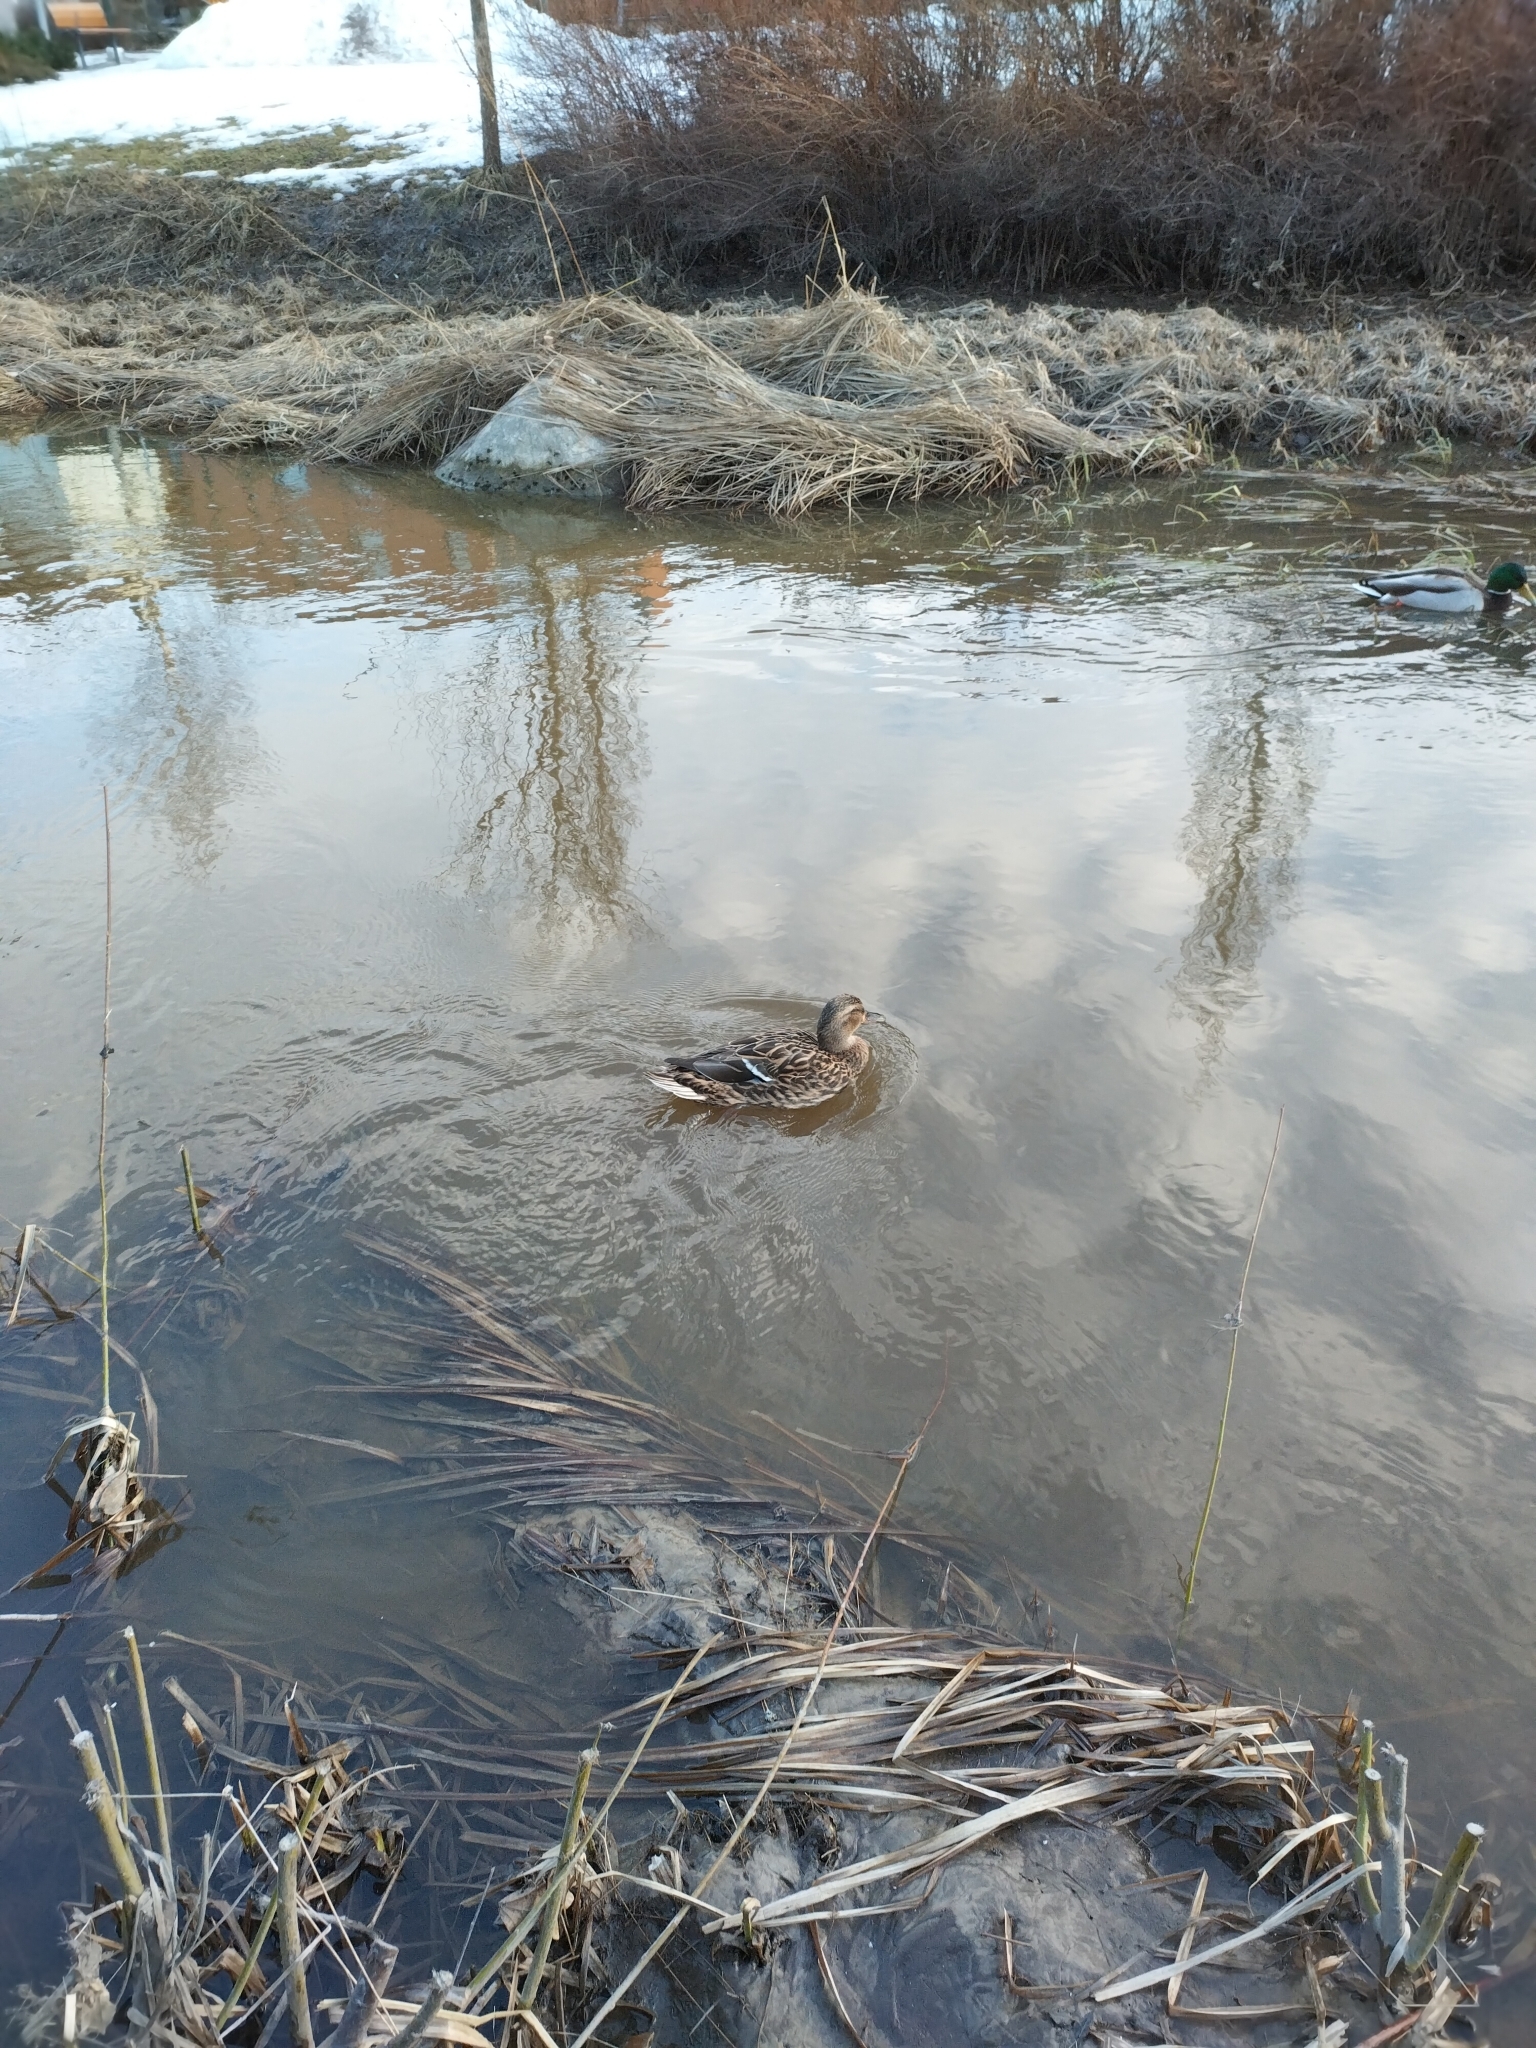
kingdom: Animalia
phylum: Chordata
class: Aves
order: Anseriformes
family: Anatidae
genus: Anas
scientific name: Anas platyrhynchos
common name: Mallard
